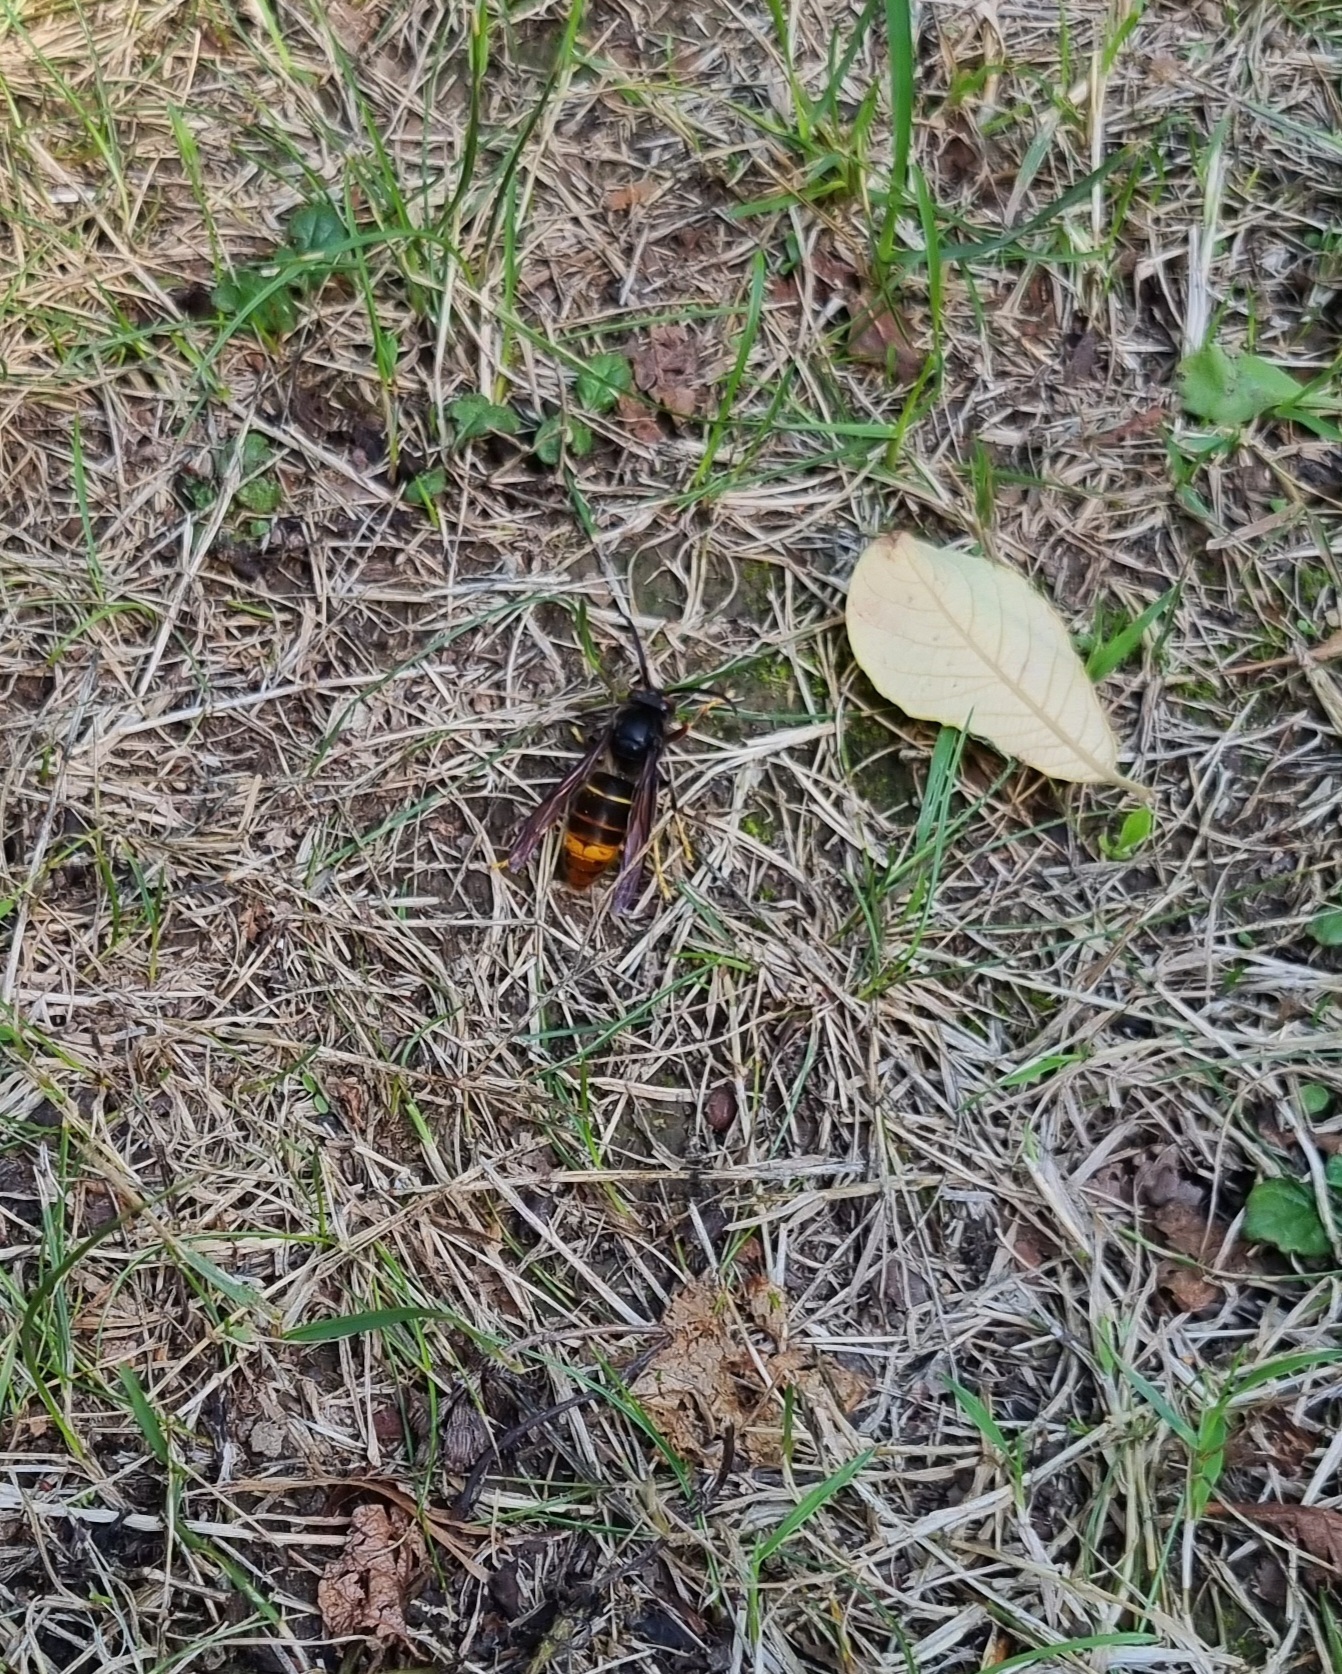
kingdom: Animalia
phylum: Arthropoda
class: Insecta
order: Hymenoptera
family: Vespidae
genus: Vespa
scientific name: Vespa velutina
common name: Asian hornet
